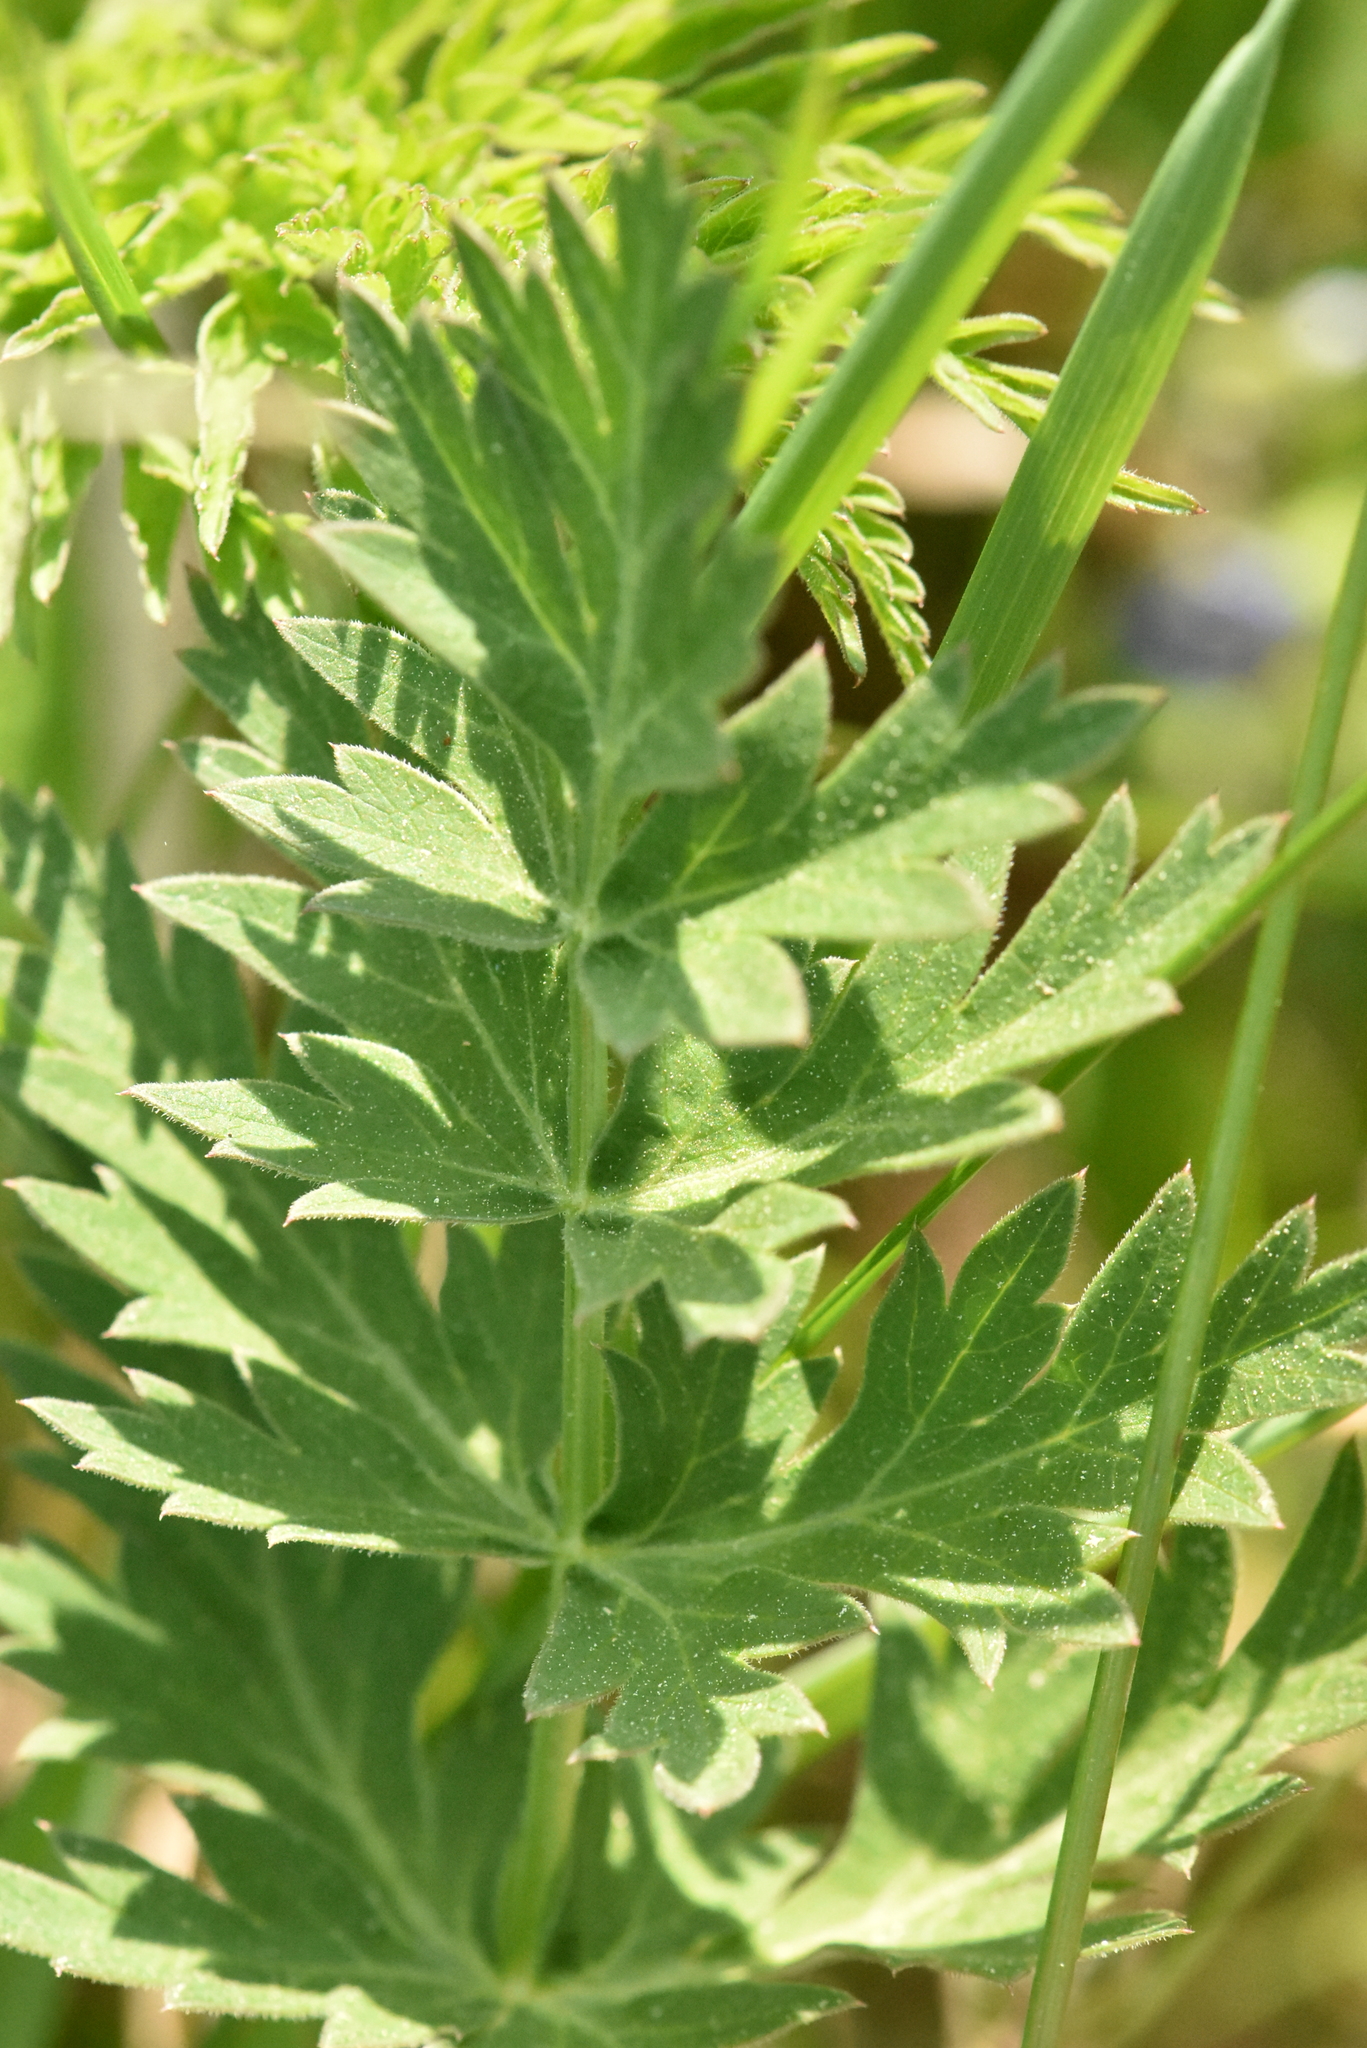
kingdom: Plantae
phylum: Tracheophyta
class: Magnoliopsida
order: Apiales
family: Apiaceae
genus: Seseli
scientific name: Seseli libanotis
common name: Mooncarrot
